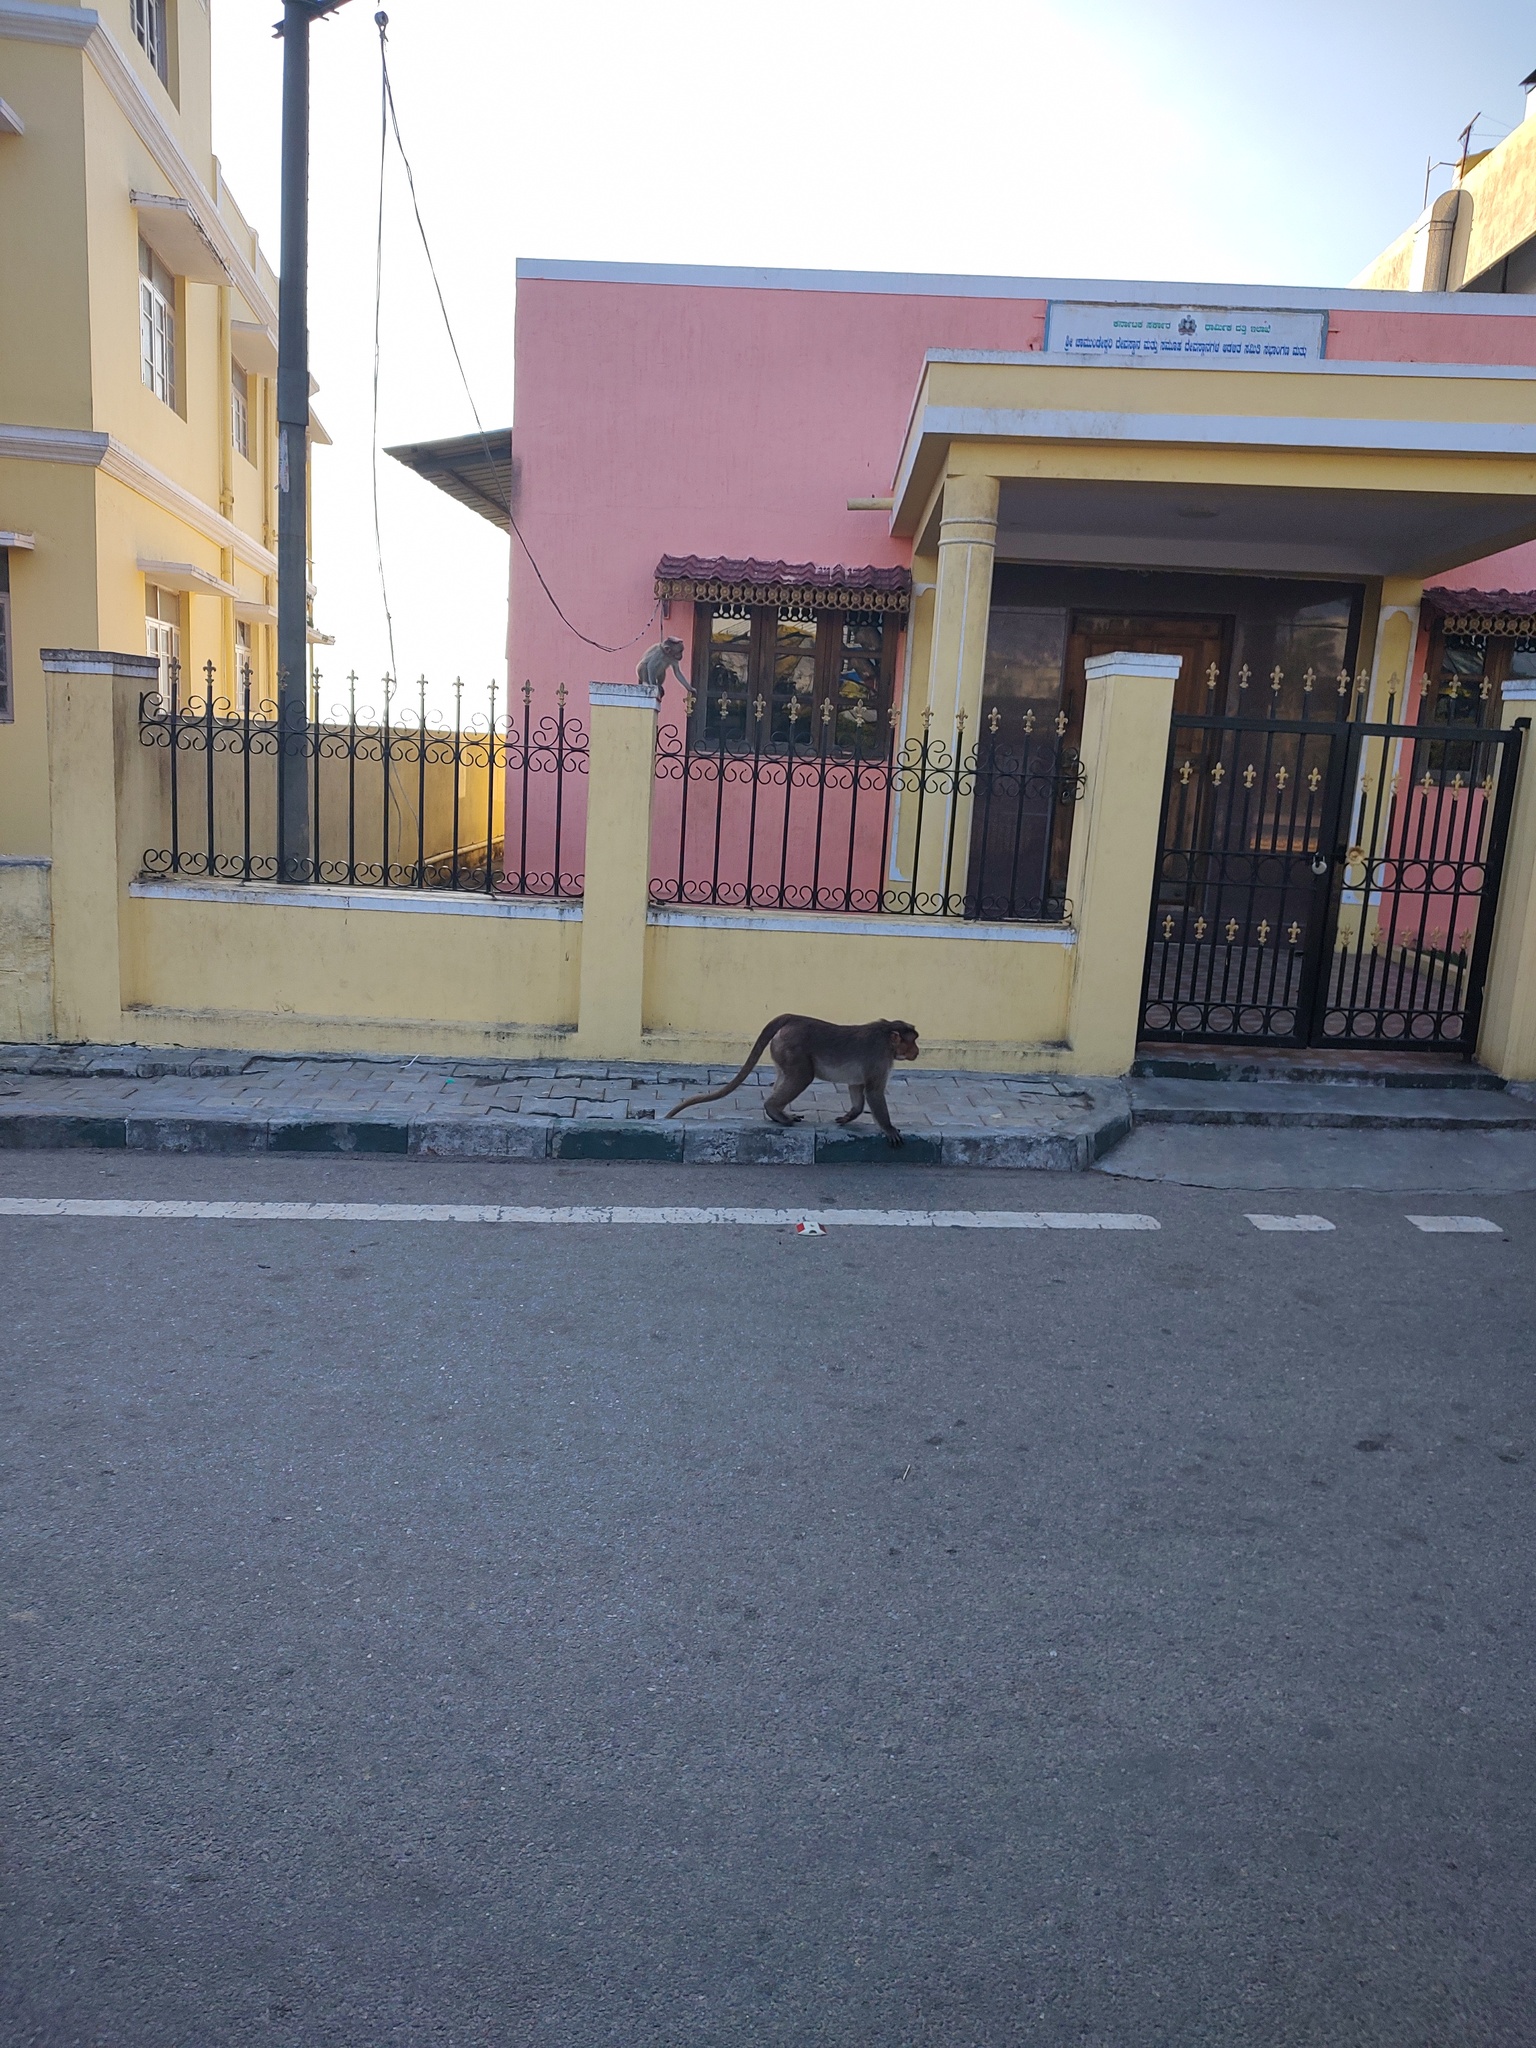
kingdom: Animalia
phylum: Chordata
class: Mammalia
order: Primates
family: Cercopithecidae
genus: Macaca
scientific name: Macaca radiata
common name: Bonnet macaque
